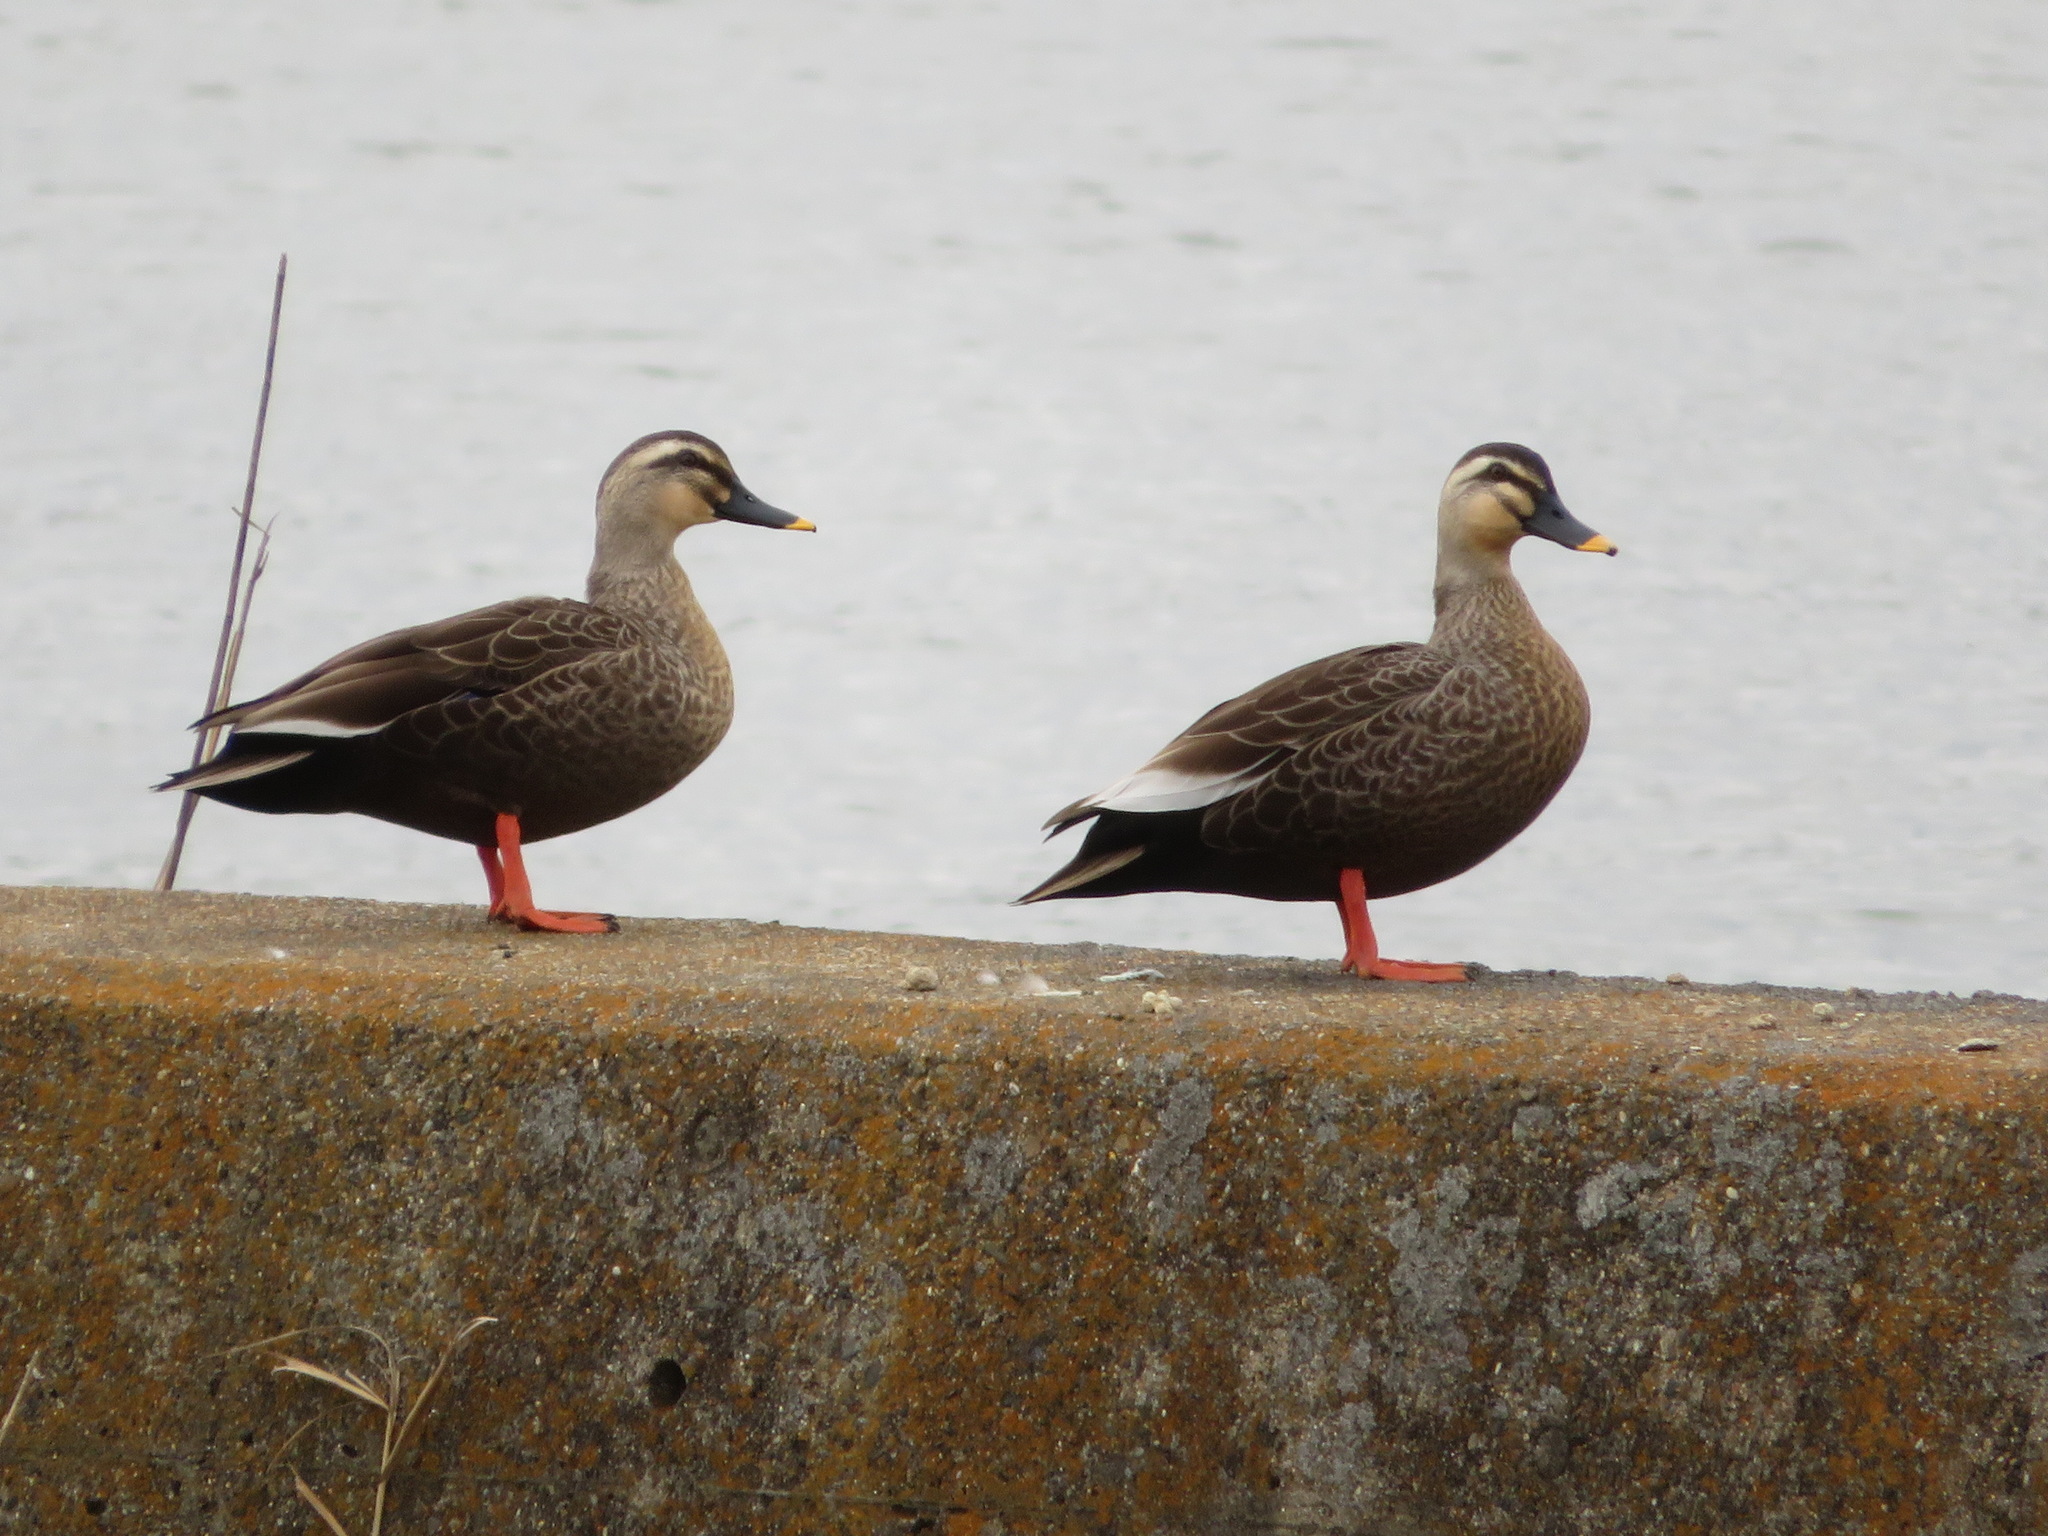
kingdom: Animalia
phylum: Chordata
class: Aves
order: Anseriformes
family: Anatidae
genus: Anas
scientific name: Anas zonorhyncha
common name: Eastern spot-billed duck
